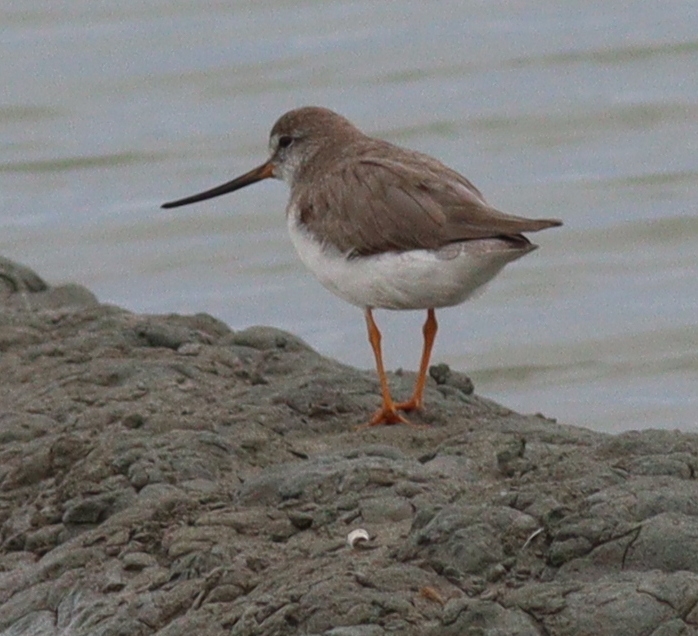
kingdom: Animalia
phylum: Chordata
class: Aves
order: Charadriiformes
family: Scolopacidae
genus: Xenus
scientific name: Xenus cinereus
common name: Terek sandpiper
